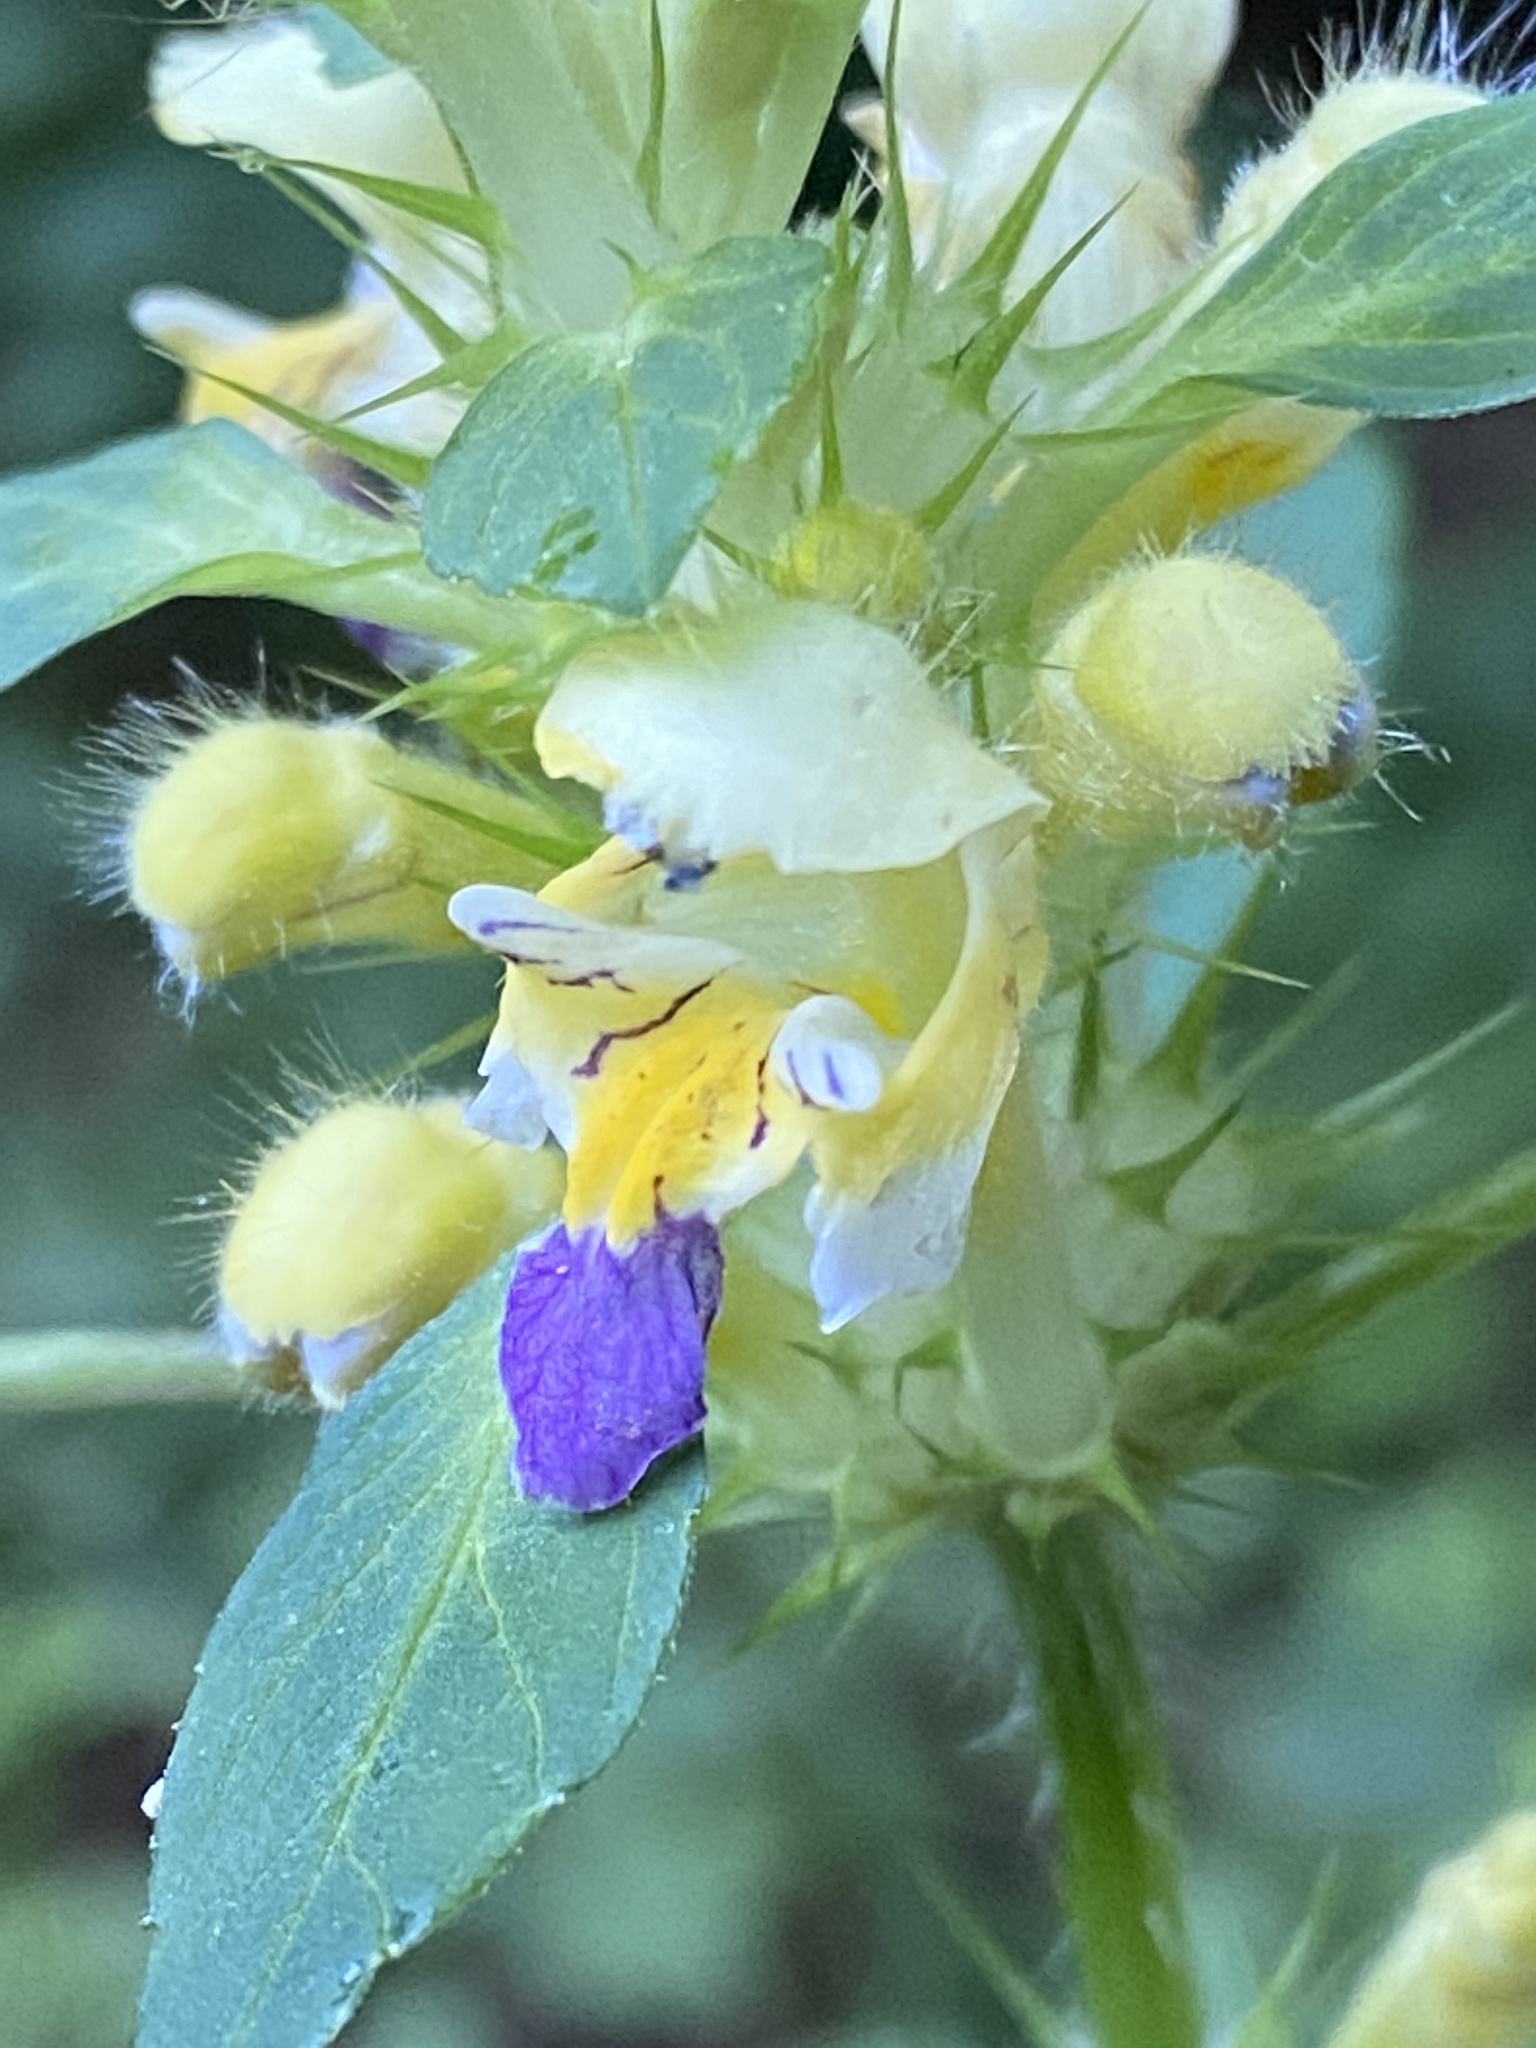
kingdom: Plantae
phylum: Tracheophyta
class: Magnoliopsida
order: Lamiales
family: Lamiaceae
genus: Galeopsis
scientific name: Galeopsis speciosa
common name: Large-flowered hemp-nettle
